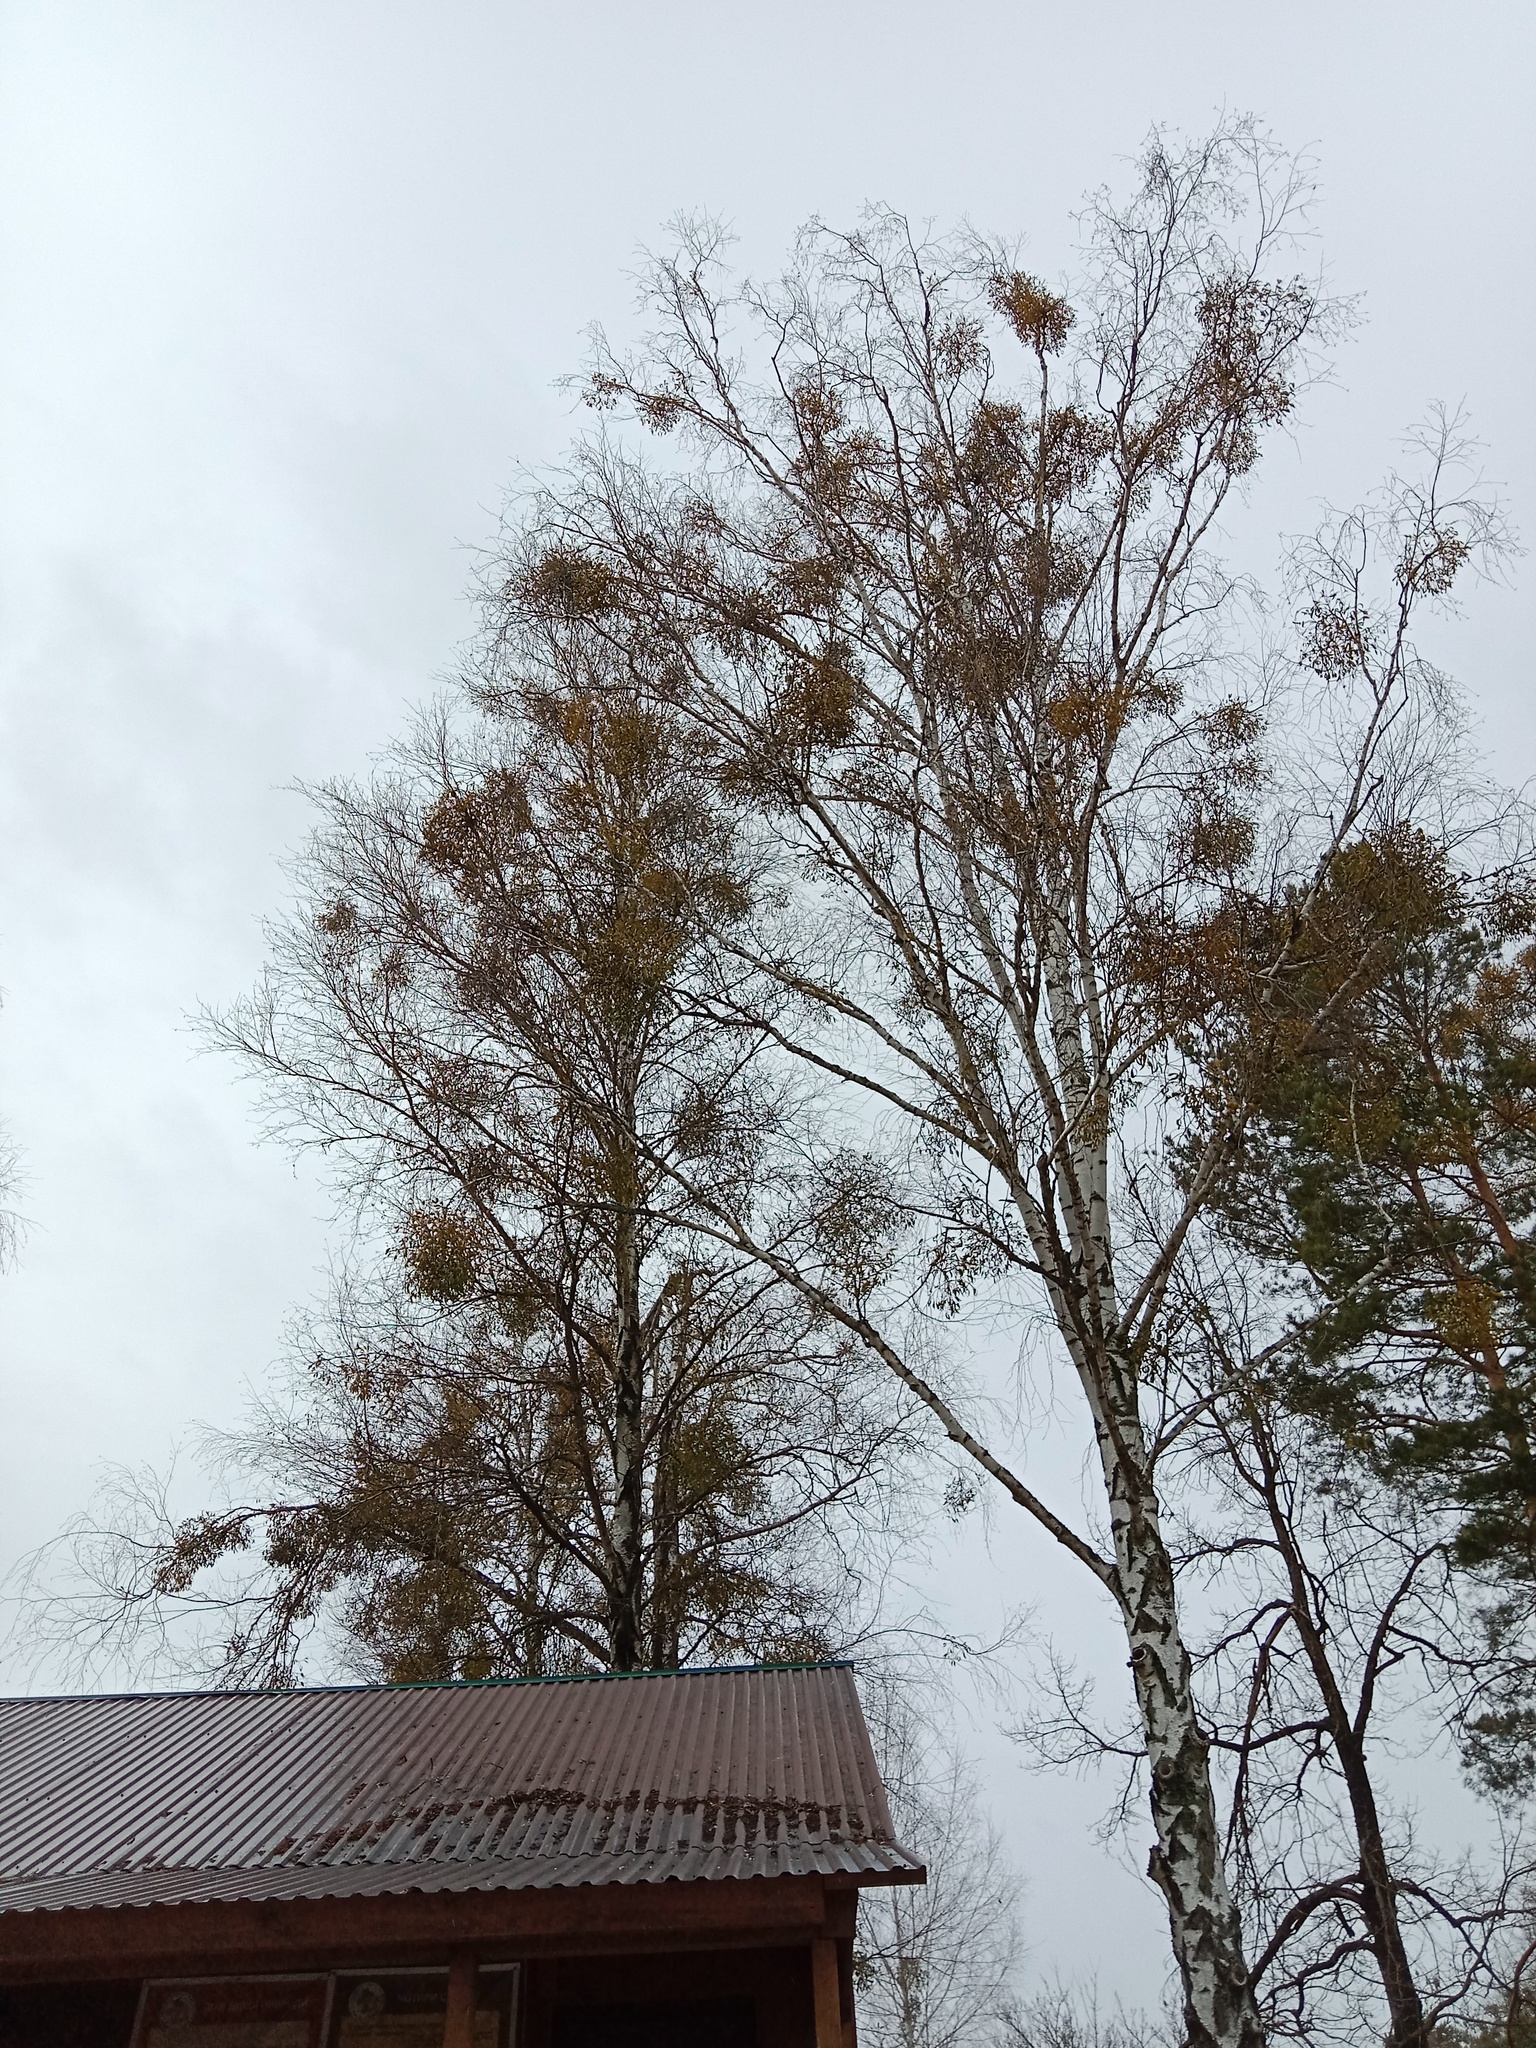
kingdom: Plantae
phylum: Tracheophyta
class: Magnoliopsida
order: Santalales
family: Viscaceae
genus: Viscum
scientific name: Viscum album
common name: Mistletoe
